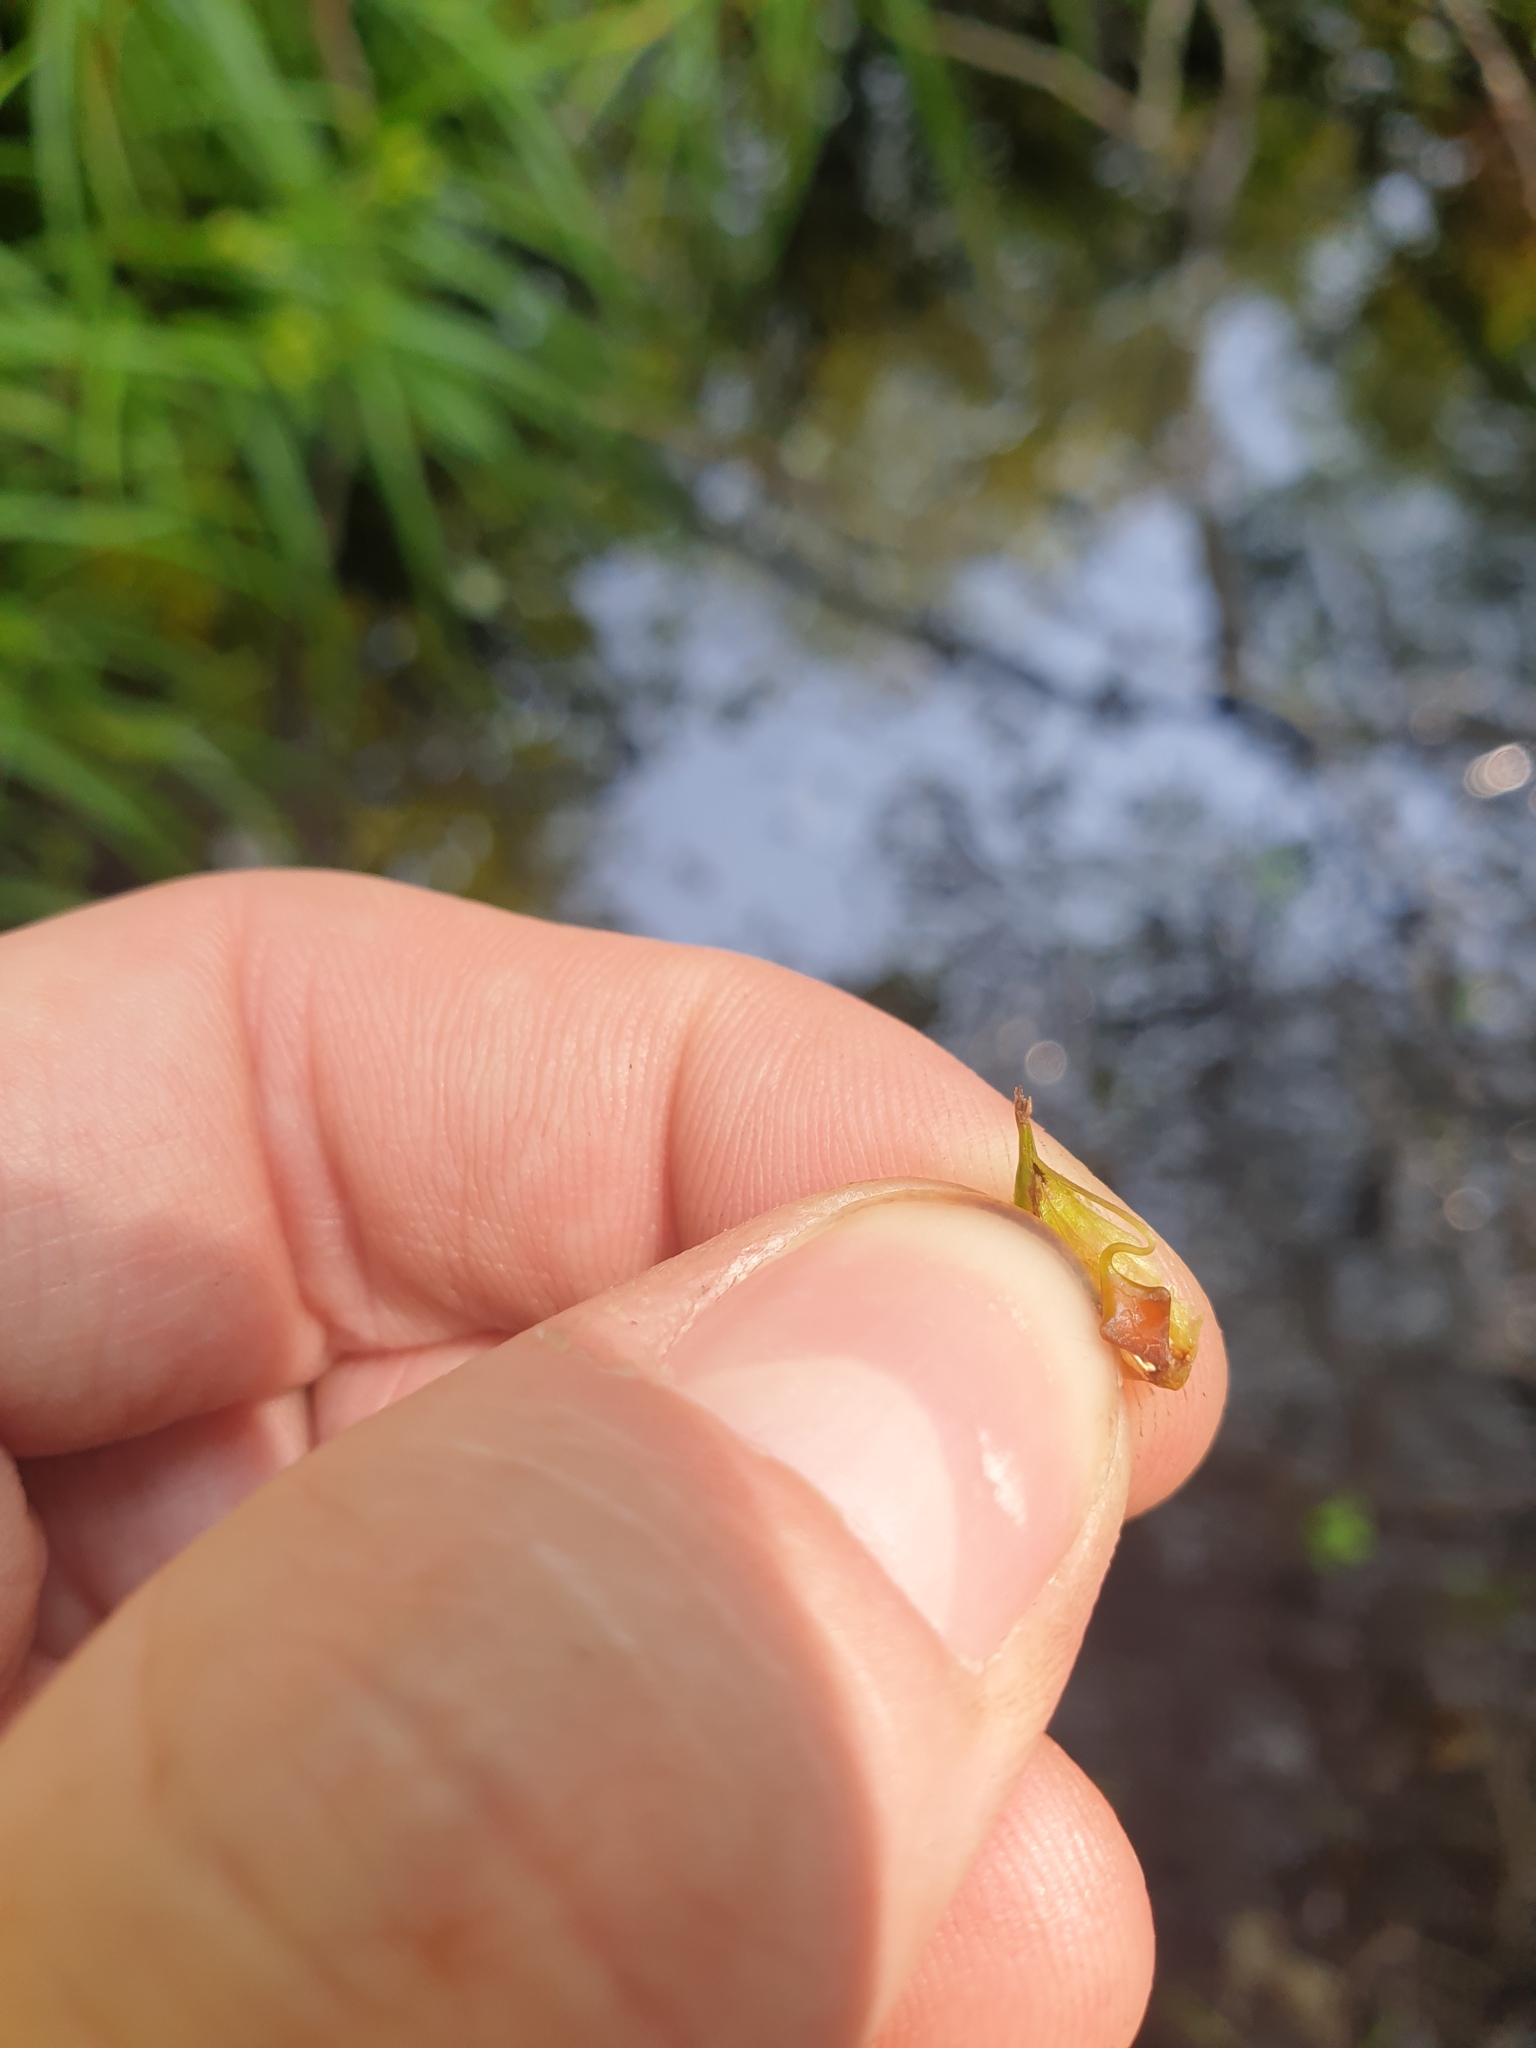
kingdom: Plantae
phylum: Tracheophyta
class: Liliopsida
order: Poales
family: Cyperaceae
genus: Carex
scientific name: Carex lupuliformis
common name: False hop sedge
